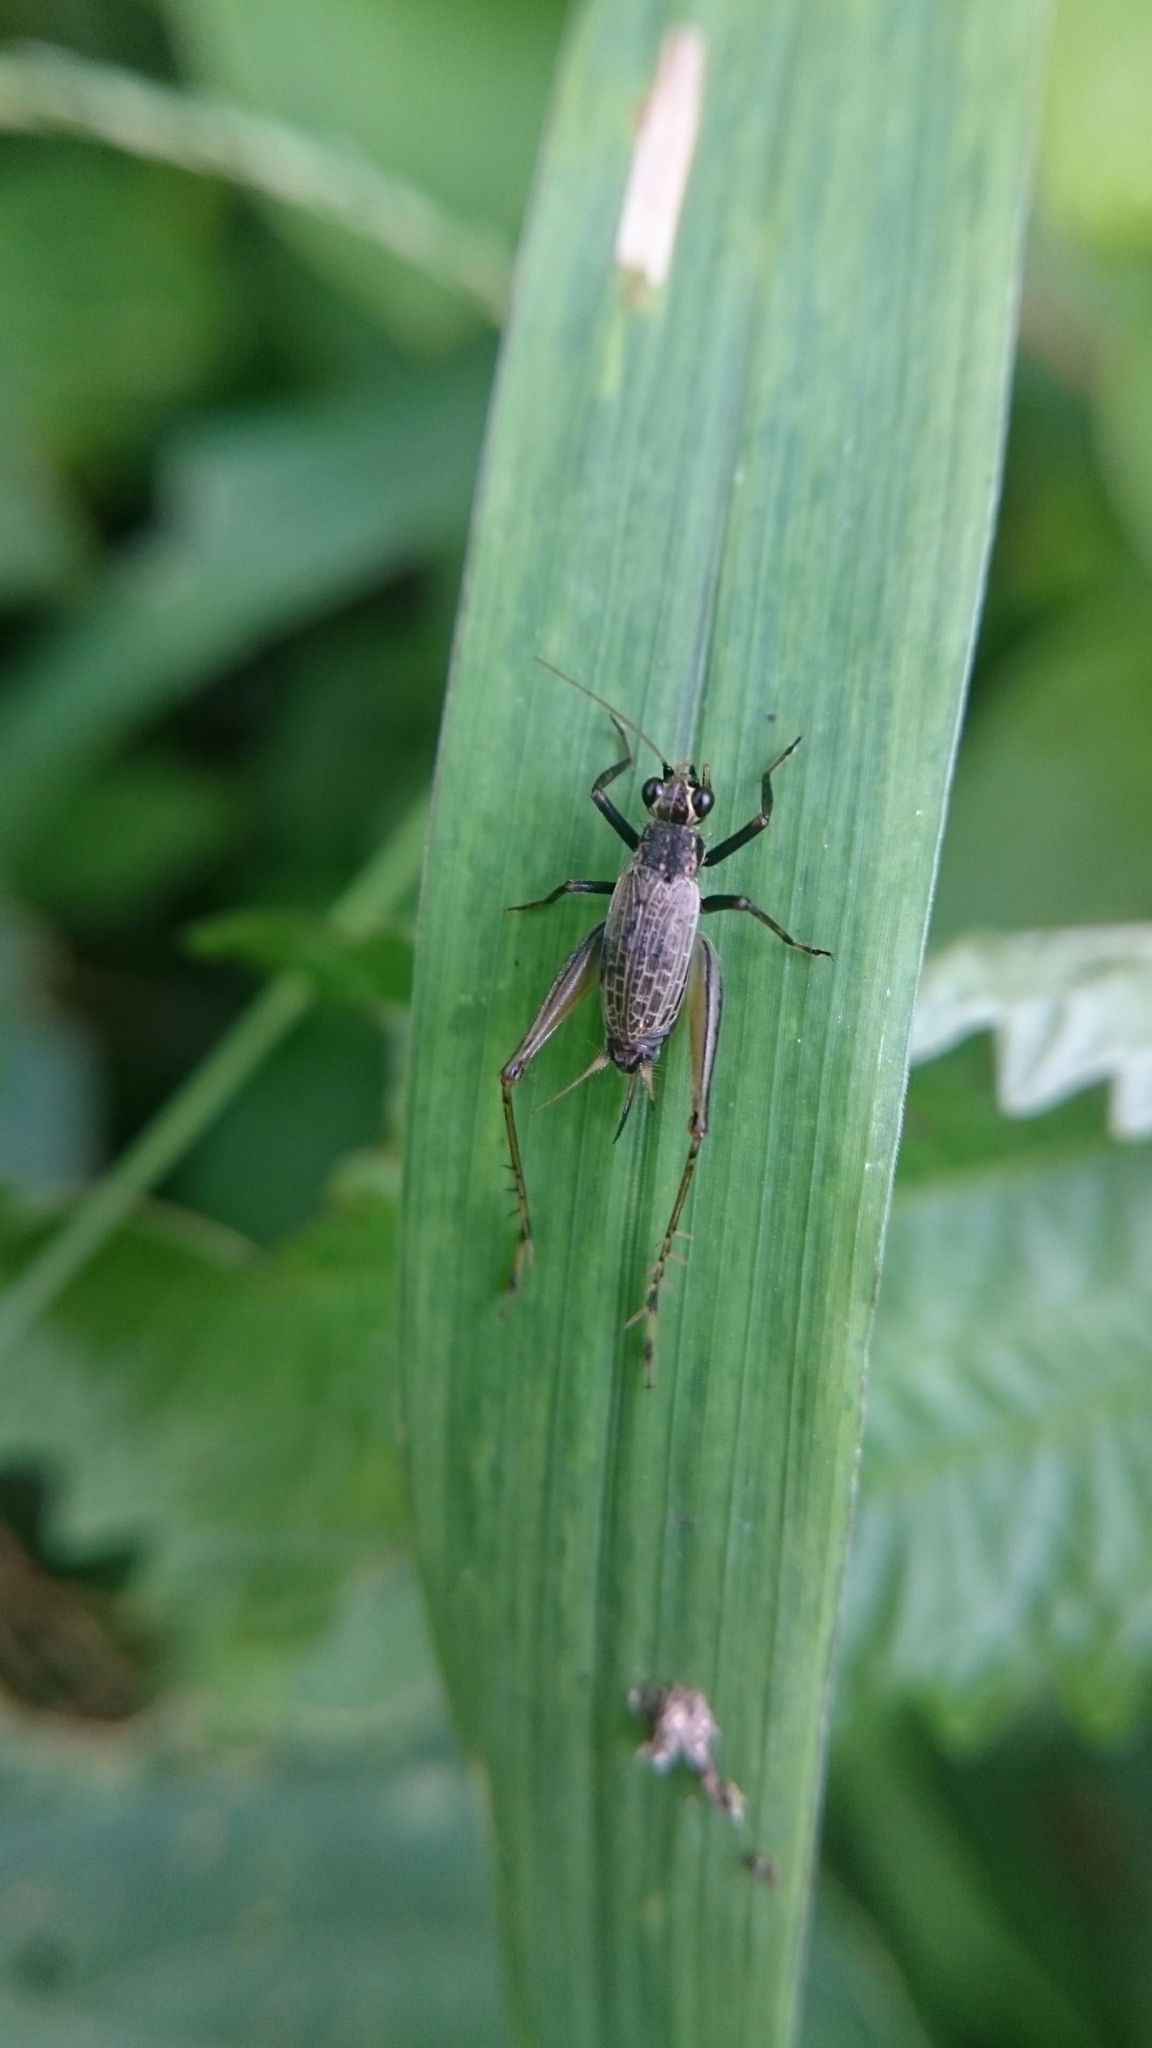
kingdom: Animalia
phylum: Arthropoda
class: Insecta
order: Orthoptera
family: Trigonidiidae
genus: Jarmilaxipha
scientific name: Jarmilaxipha ecuadorica
